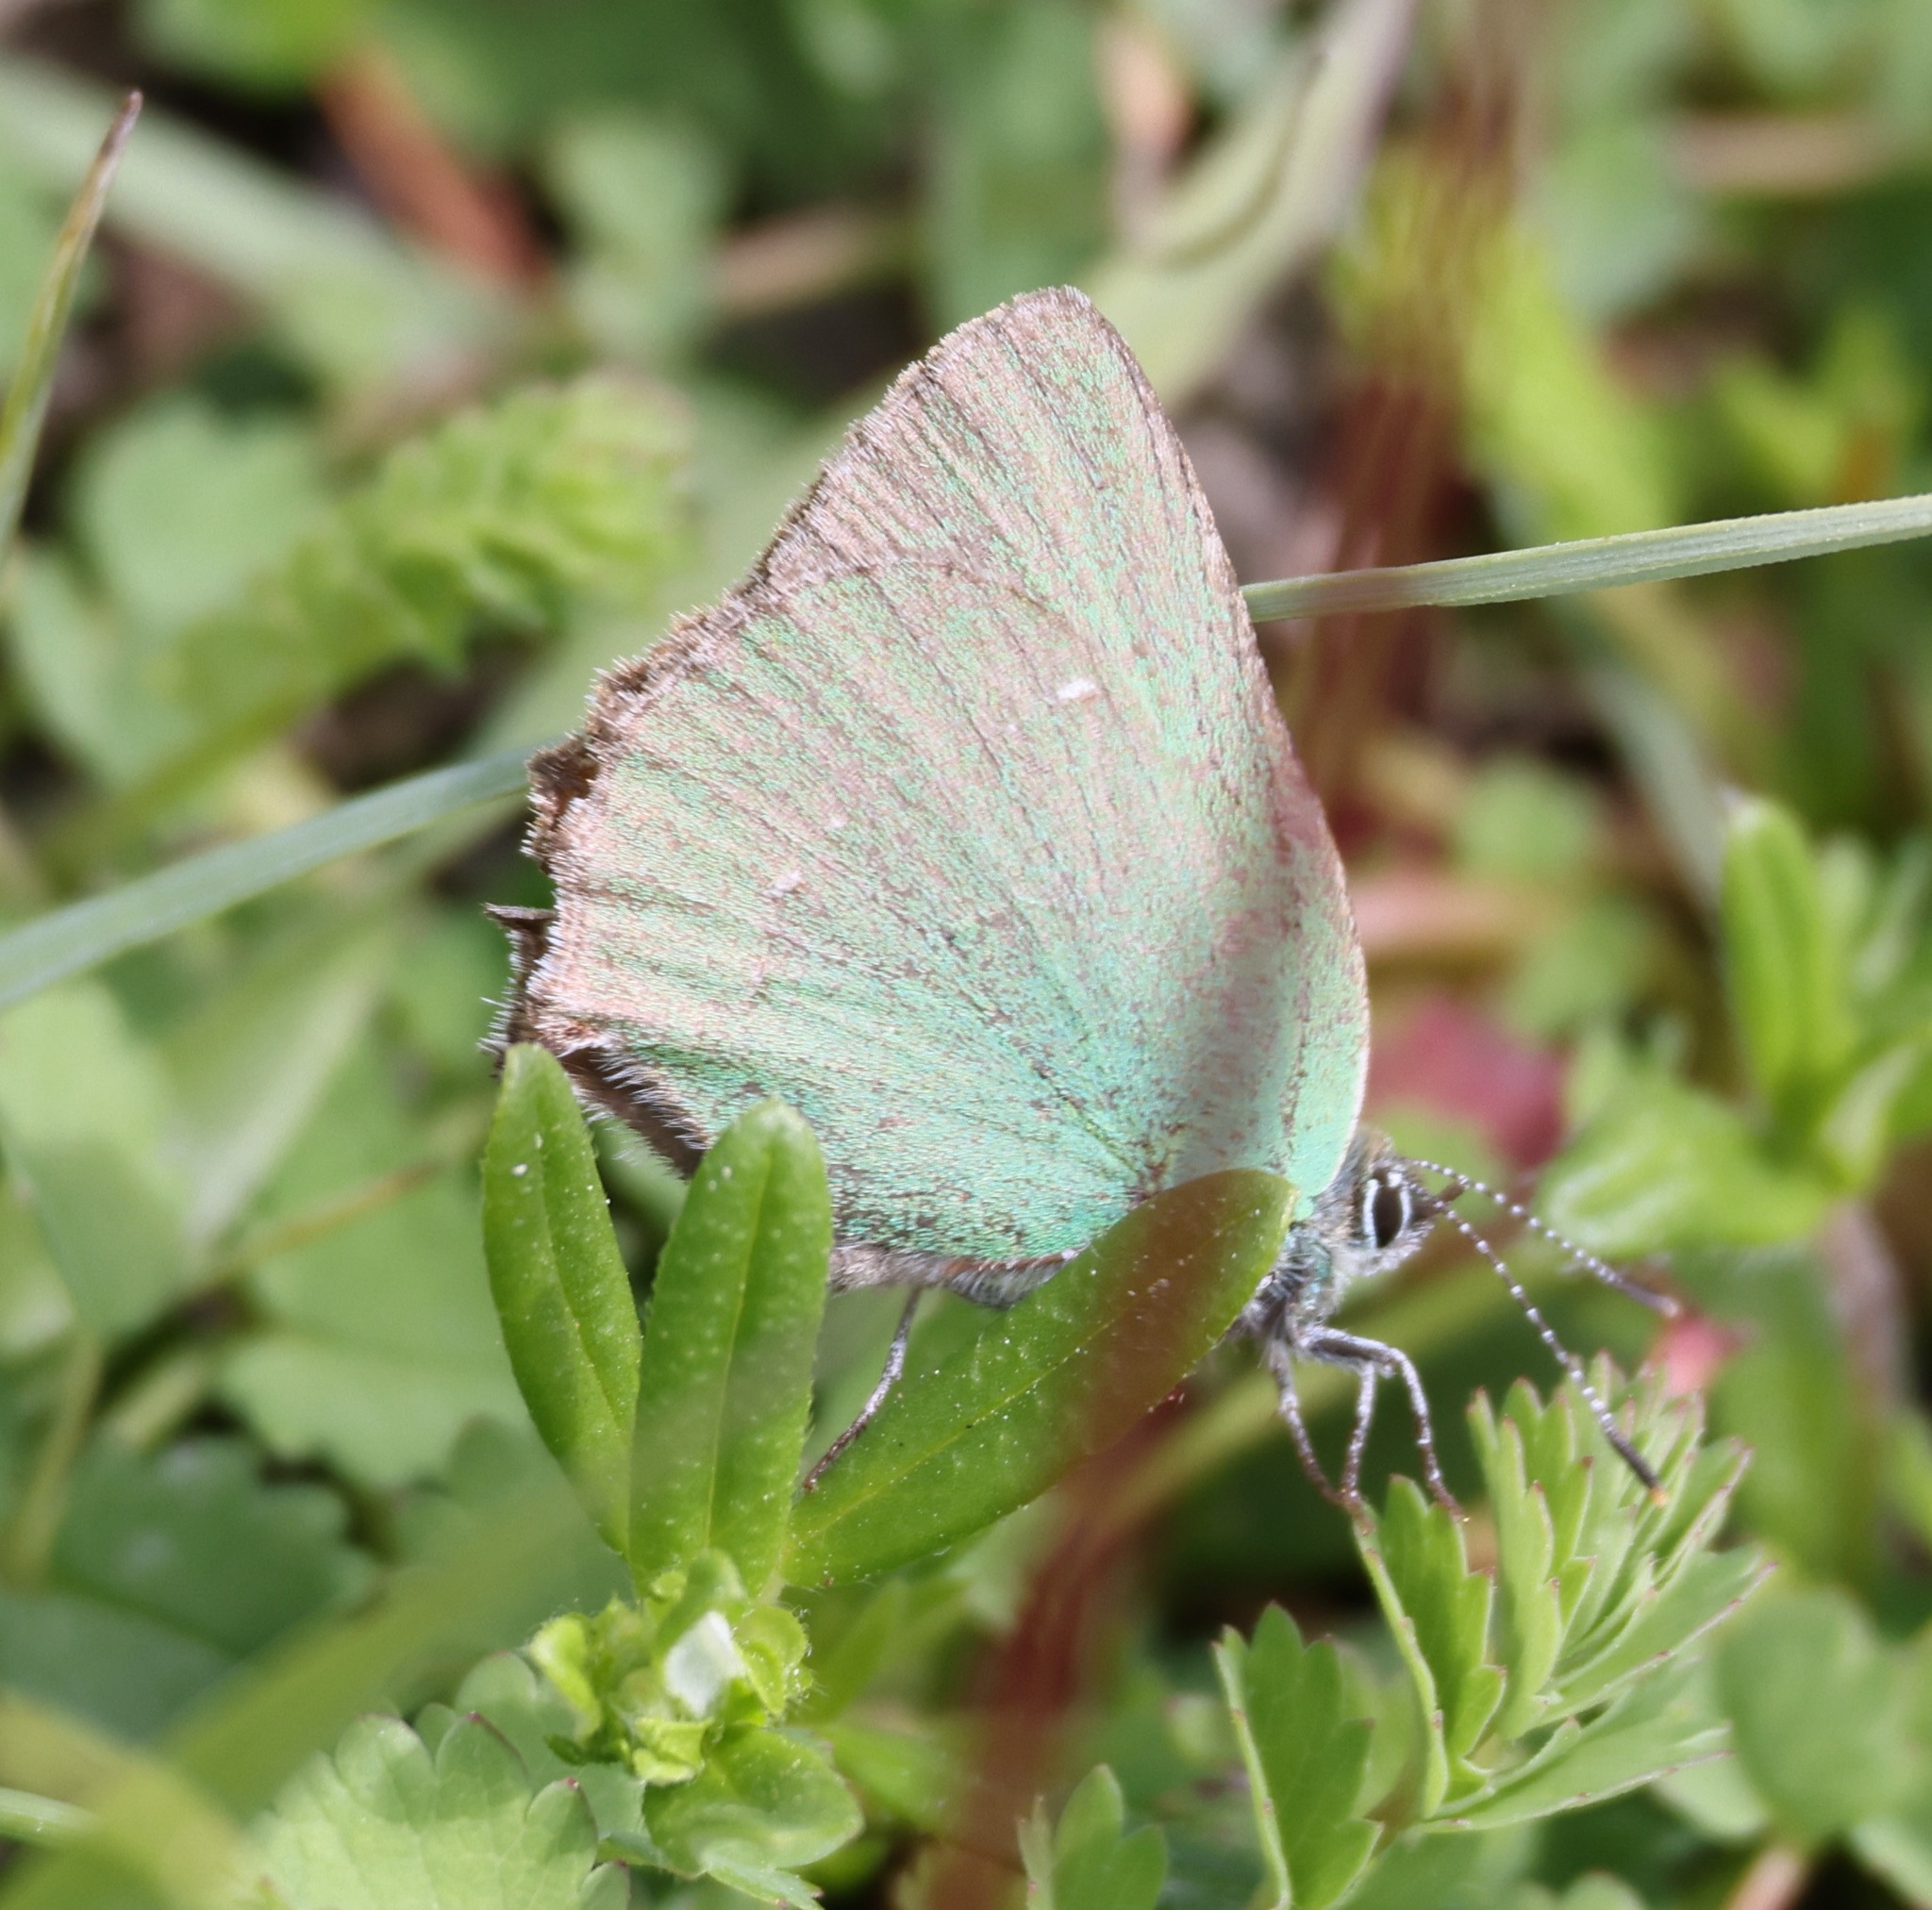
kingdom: Animalia
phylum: Arthropoda
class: Insecta
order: Lepidoptera
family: Lycaenidae
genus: Callophrys
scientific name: Callophrys rubi
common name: Green hairstreak
